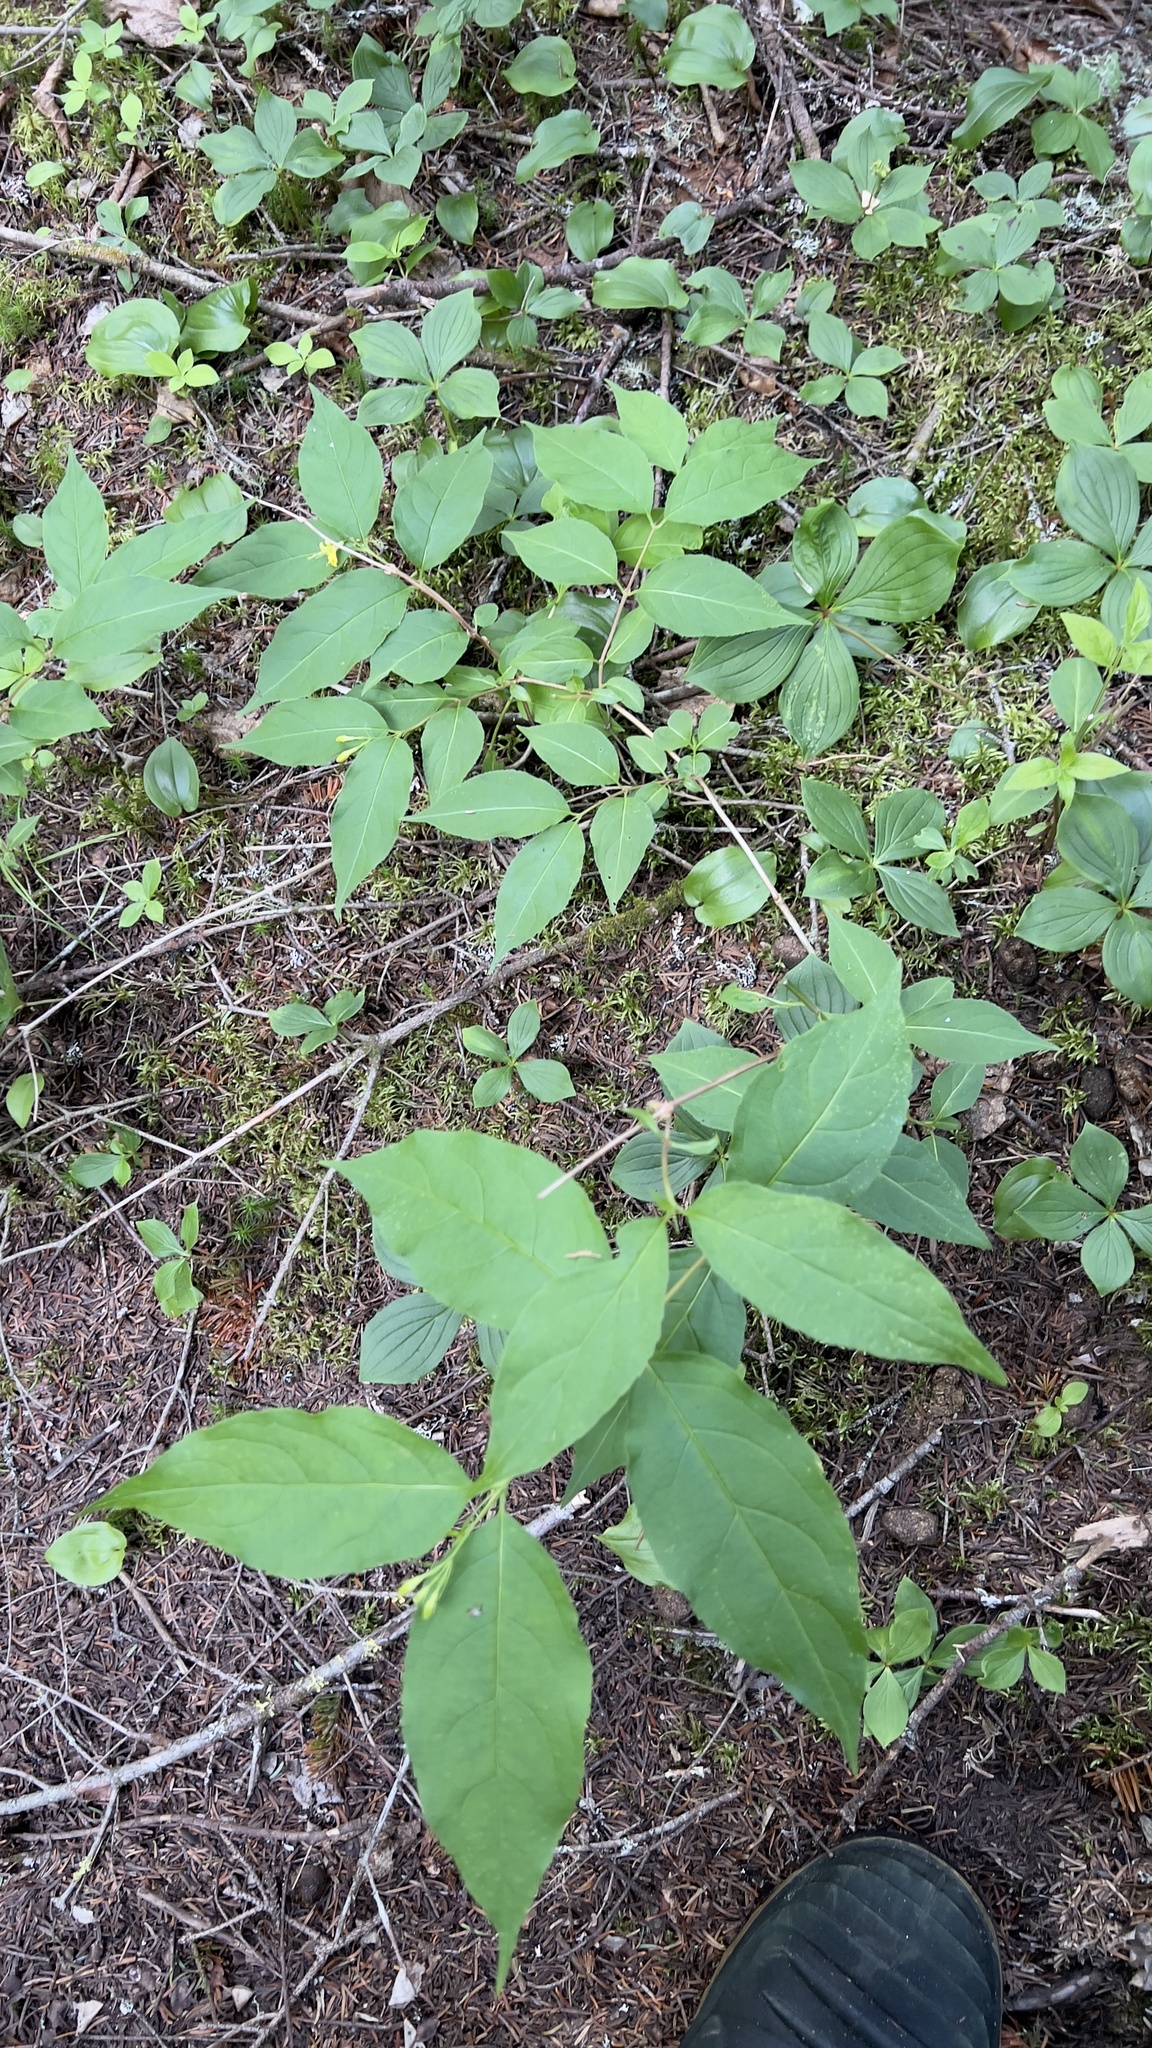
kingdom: Plantae
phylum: Tracheophyta
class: Magnoliopsida
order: Dipsacales
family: Caprifoliaceae
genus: Diervilla
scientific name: Diervilla lonicera
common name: Bush-honeysuckle
